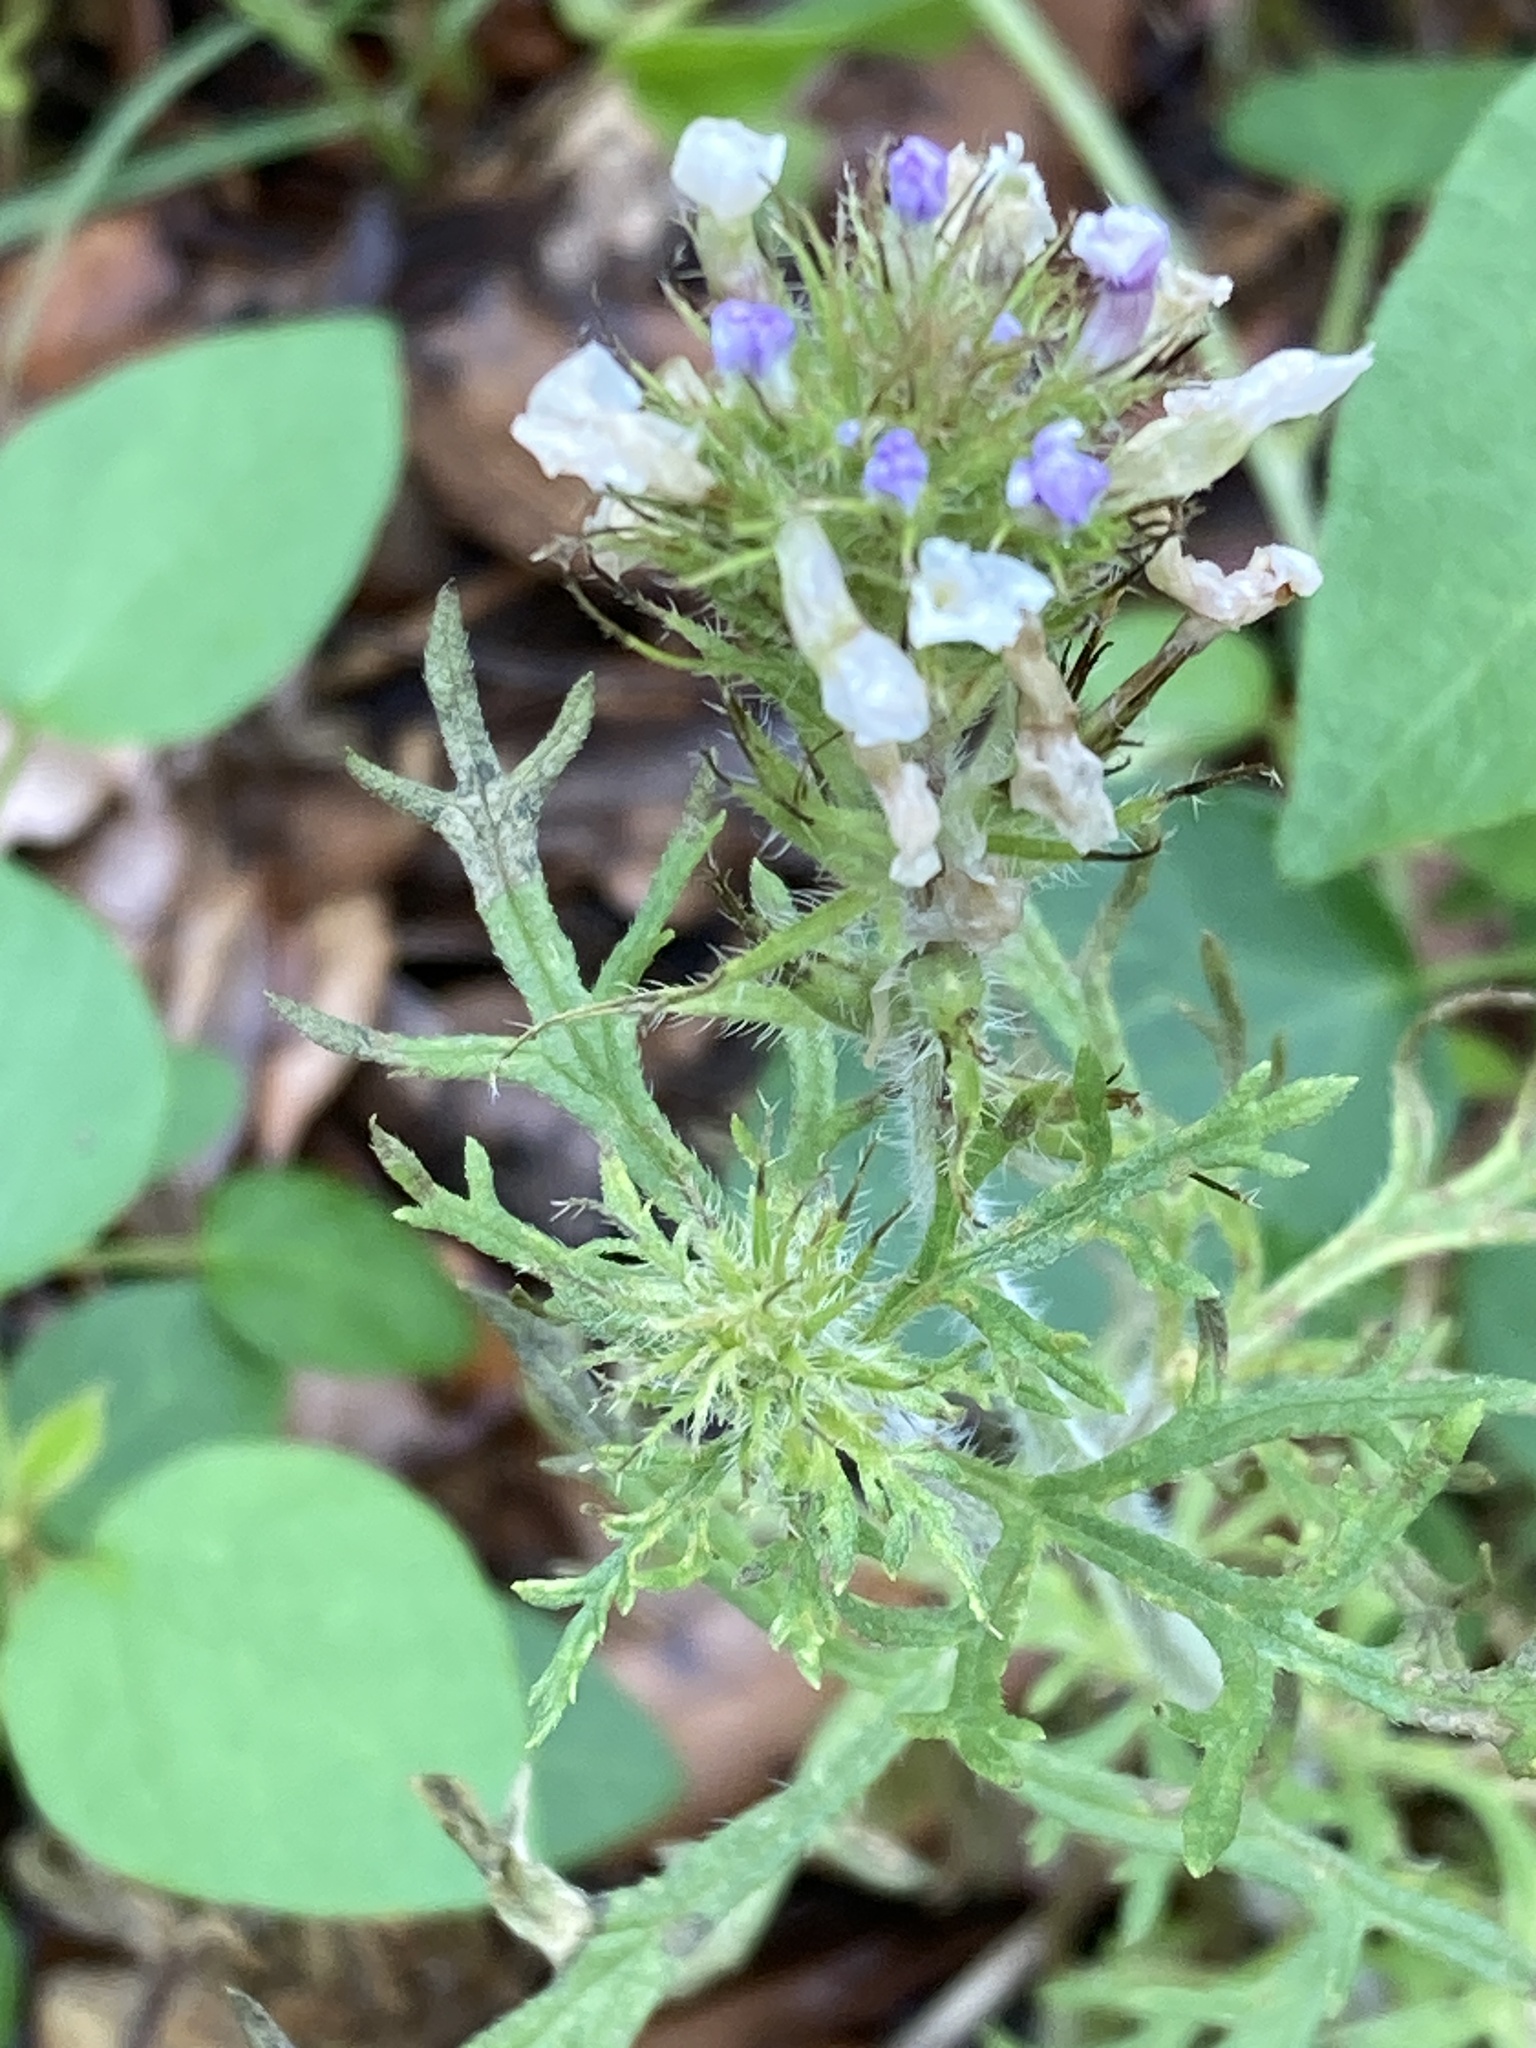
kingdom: Plantae
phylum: Tracheophyta
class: Magnoliopsida
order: Lamiales
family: Verbenaceae
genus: Verbena
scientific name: Verbena bipinnatifida
